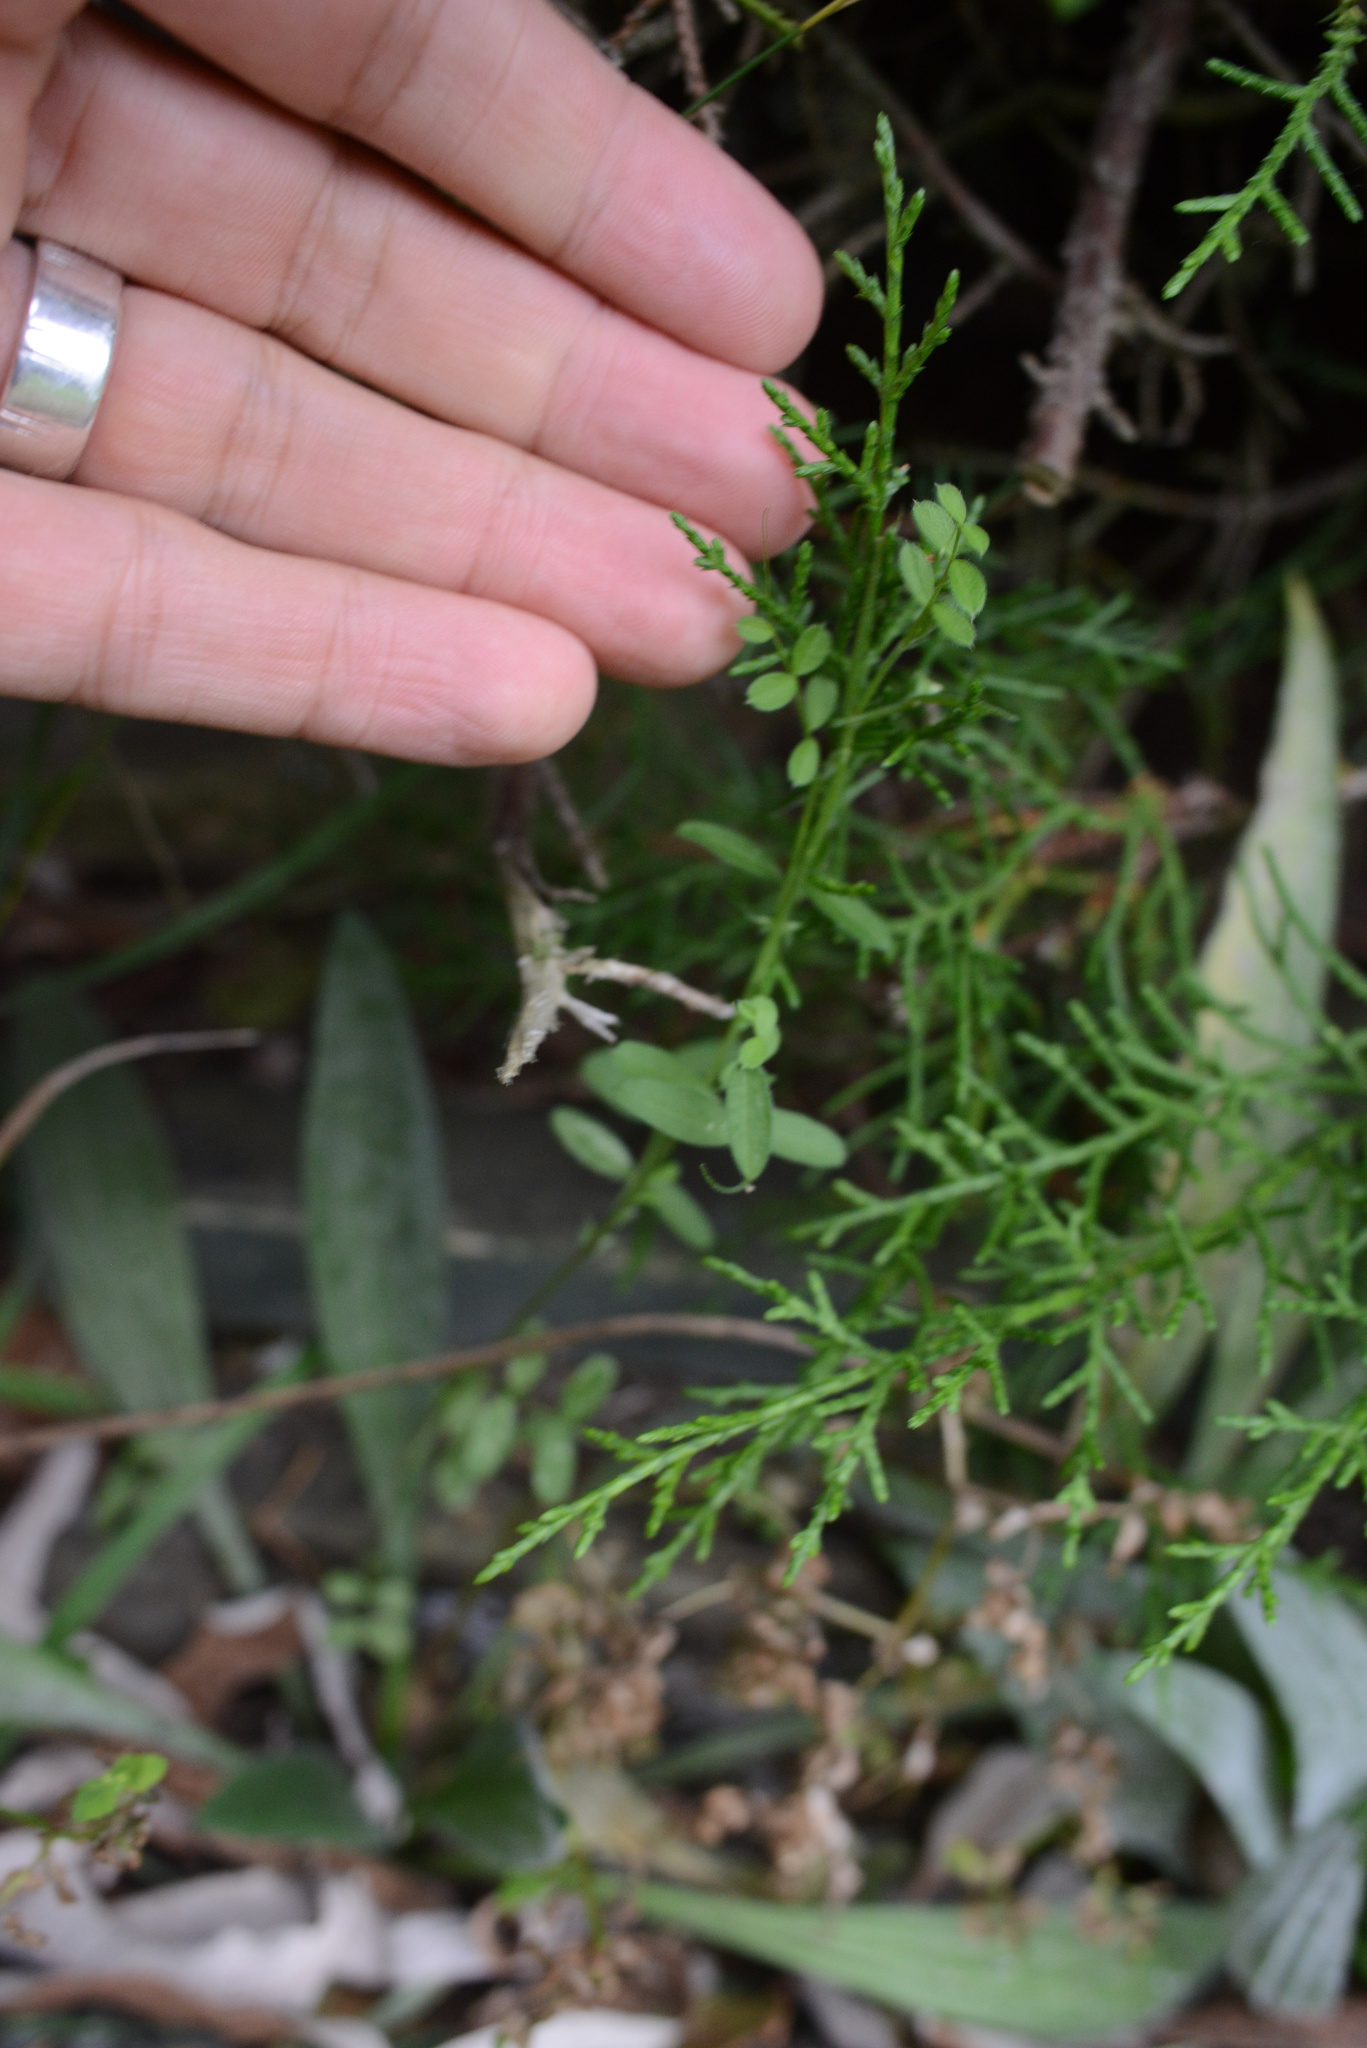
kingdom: Plantae
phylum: Tracheophyta
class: Magnoliopsida
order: Fabales
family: Fabaceae
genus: Vicia
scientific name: Vicia sativa
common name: Garden vetch
